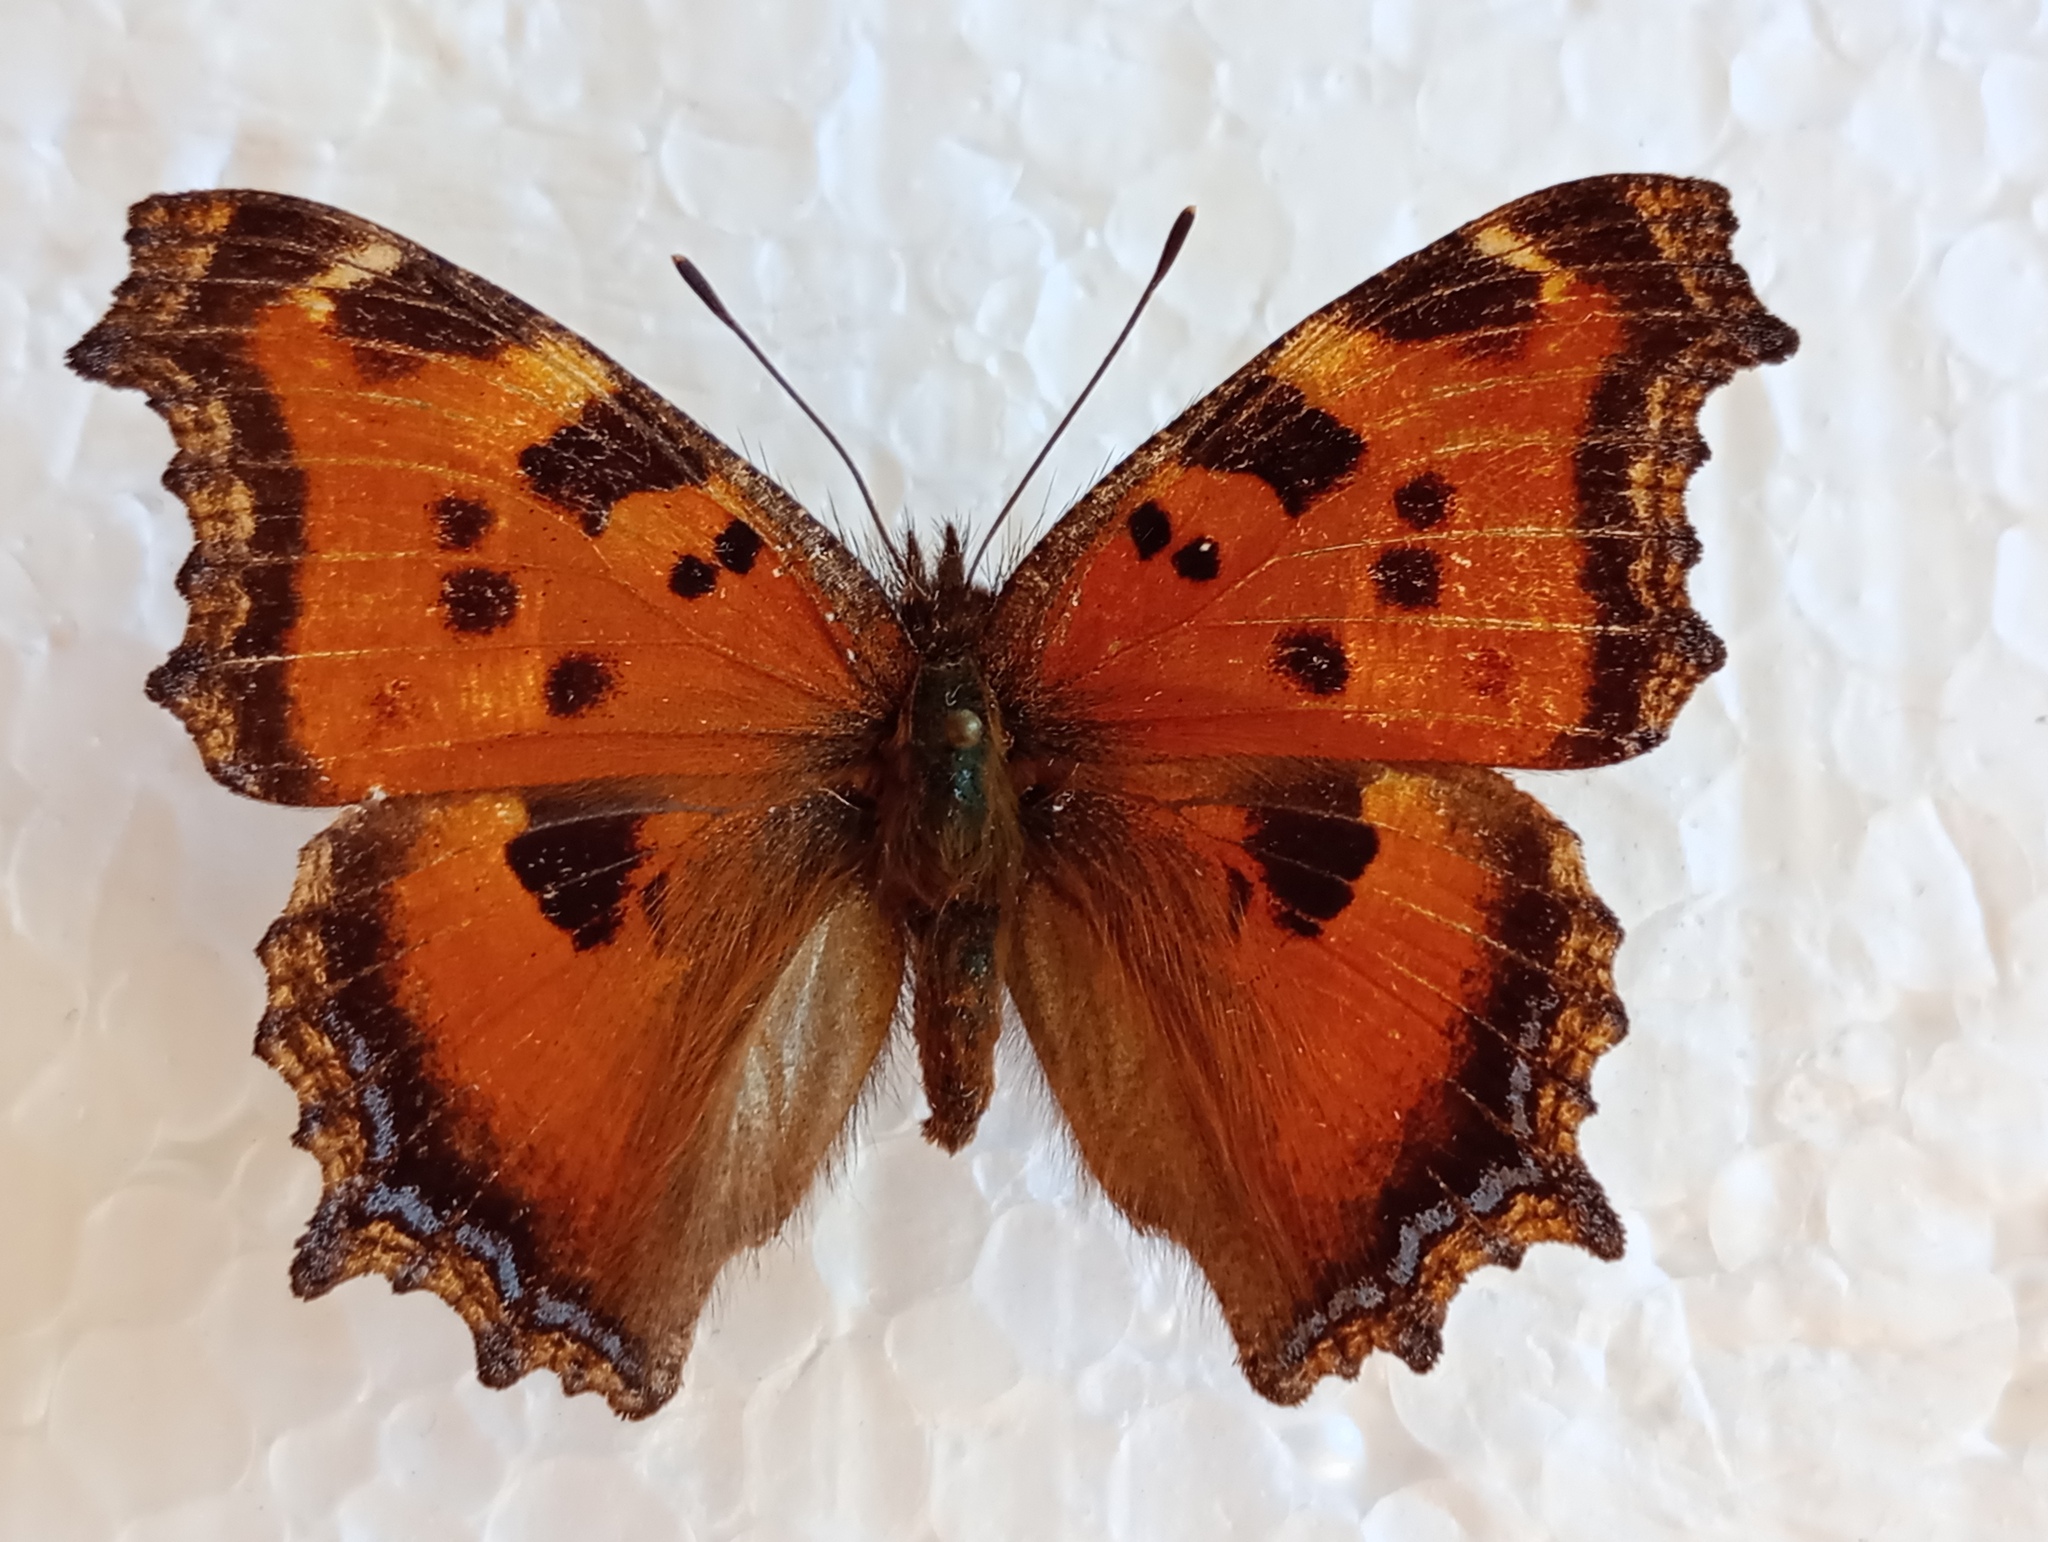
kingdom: Animalia
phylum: Arthropoda
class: Insecta
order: Lepidoptera
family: Nymphalidae
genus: Nymphalis
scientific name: Nymphalis xanthomelas
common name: Scarce tortoiseshell
